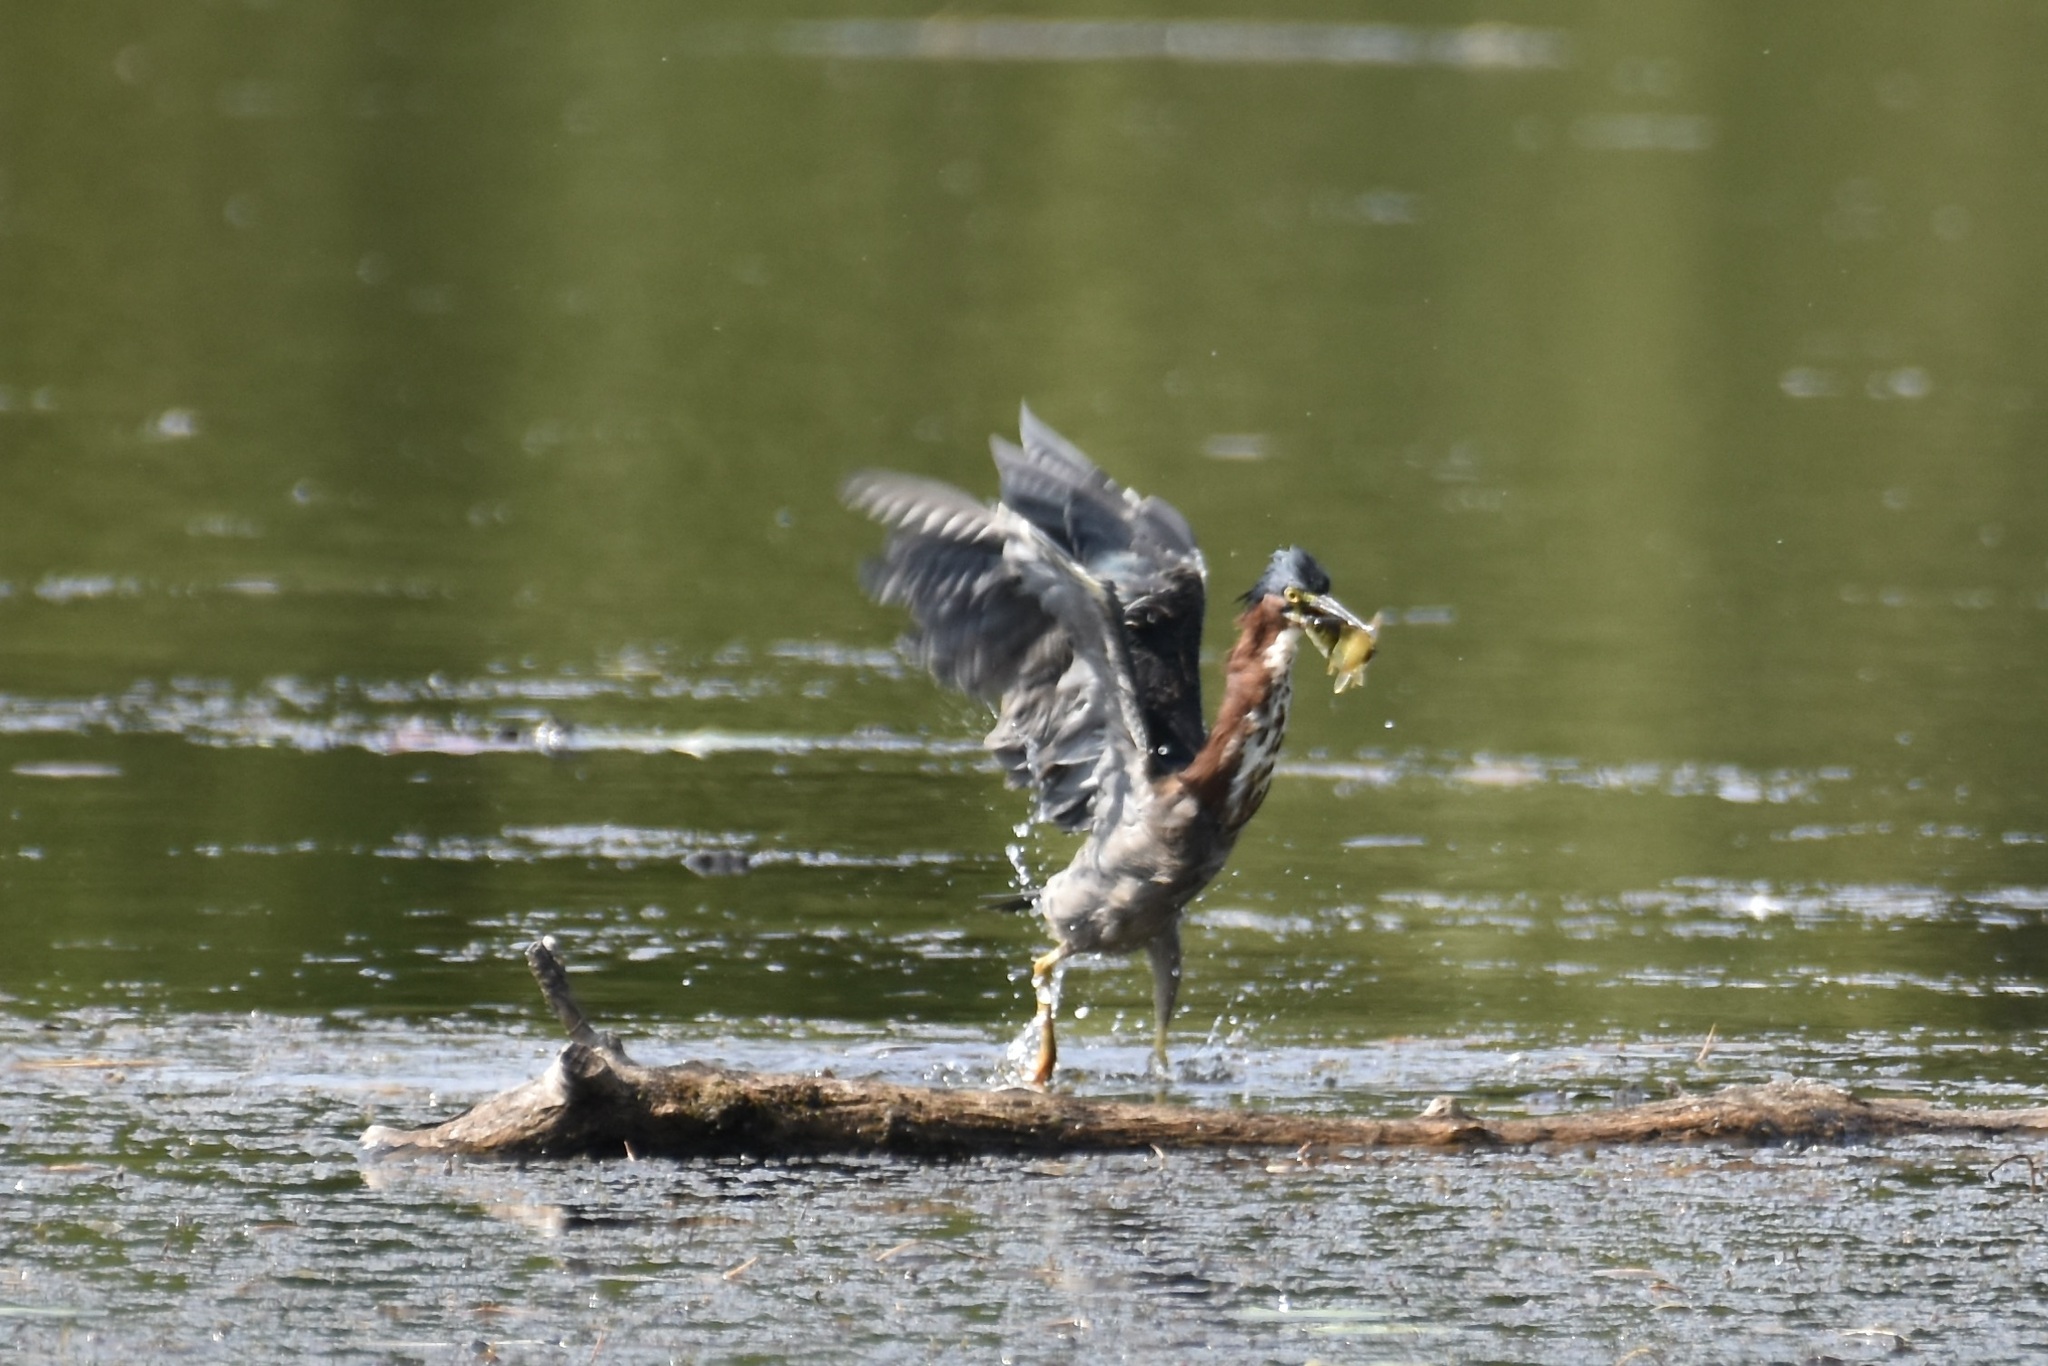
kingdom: Animalia
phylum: Chordata
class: Aves
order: Pelecaniformes
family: Ardeidae
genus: Butorides
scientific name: Butorides virescens
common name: Green heron
